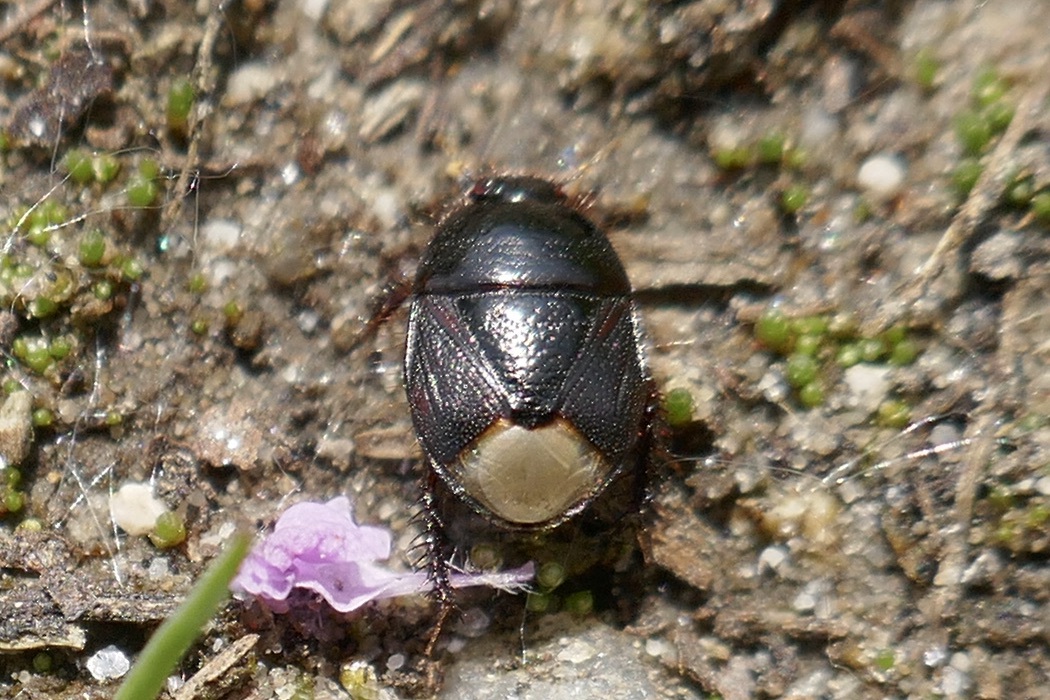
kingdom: Animalia
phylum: Arthropoda
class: Insecta
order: Hemiptera
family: Cydnidae
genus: Microporus
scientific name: Microporus nigrita
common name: Burrower bug
